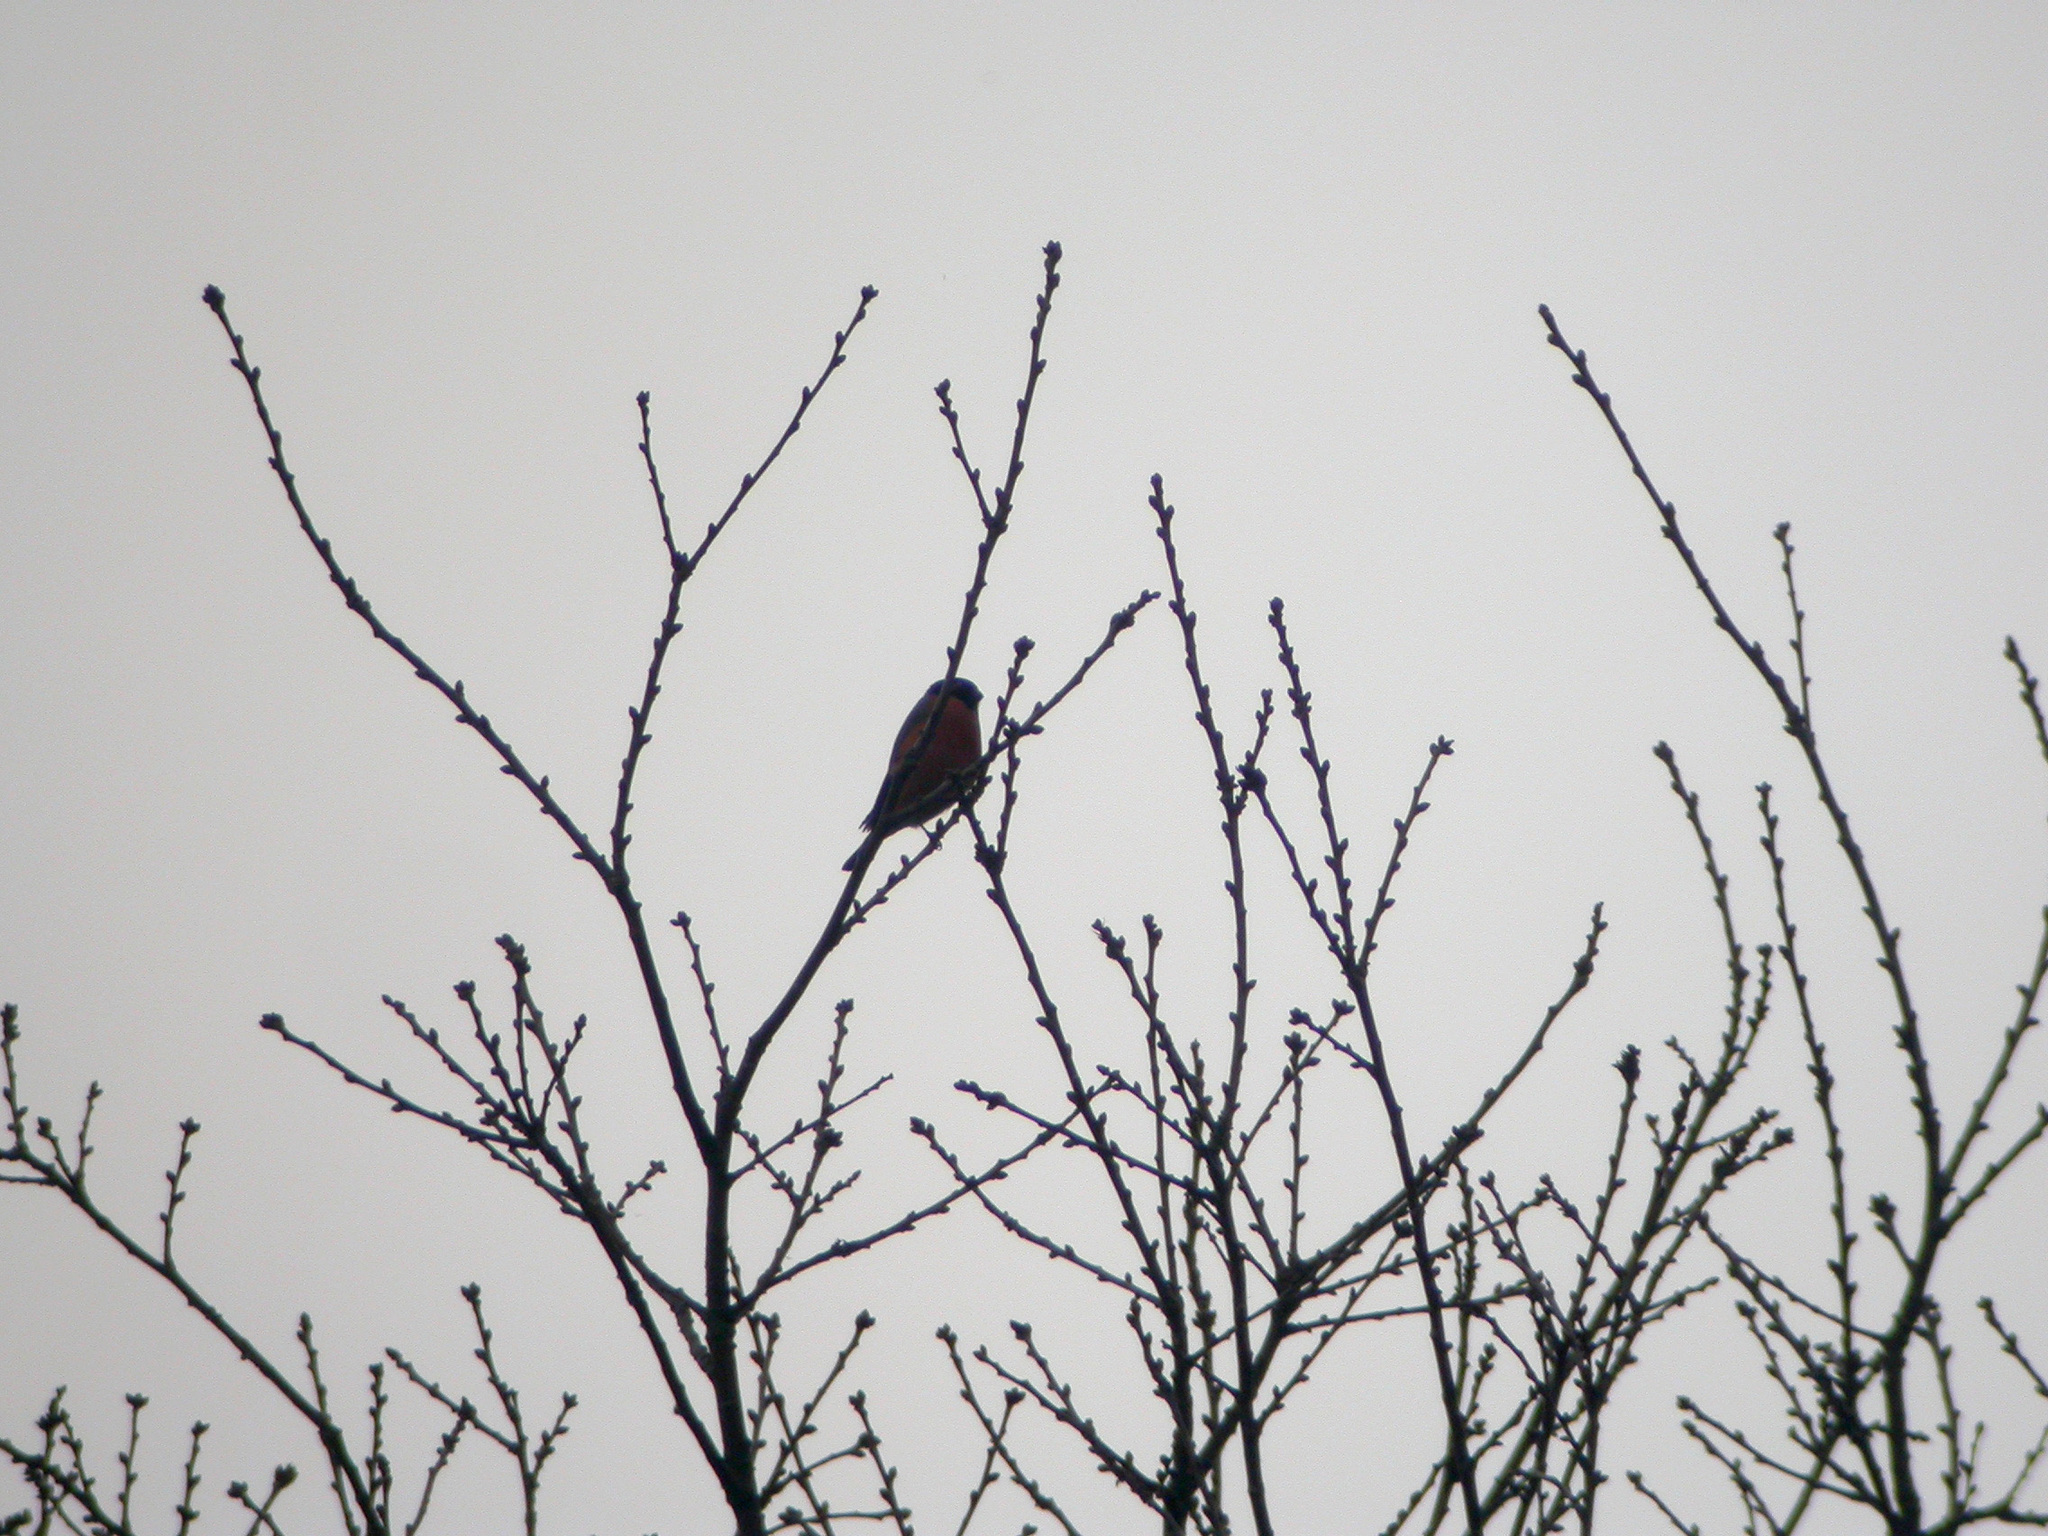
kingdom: Animalia
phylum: Chordata
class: Aves
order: Passeriformes
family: Fringillidae
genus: Pyrrhula
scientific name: Pyrrhula pyrrhula
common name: Eurasian bullfinch
